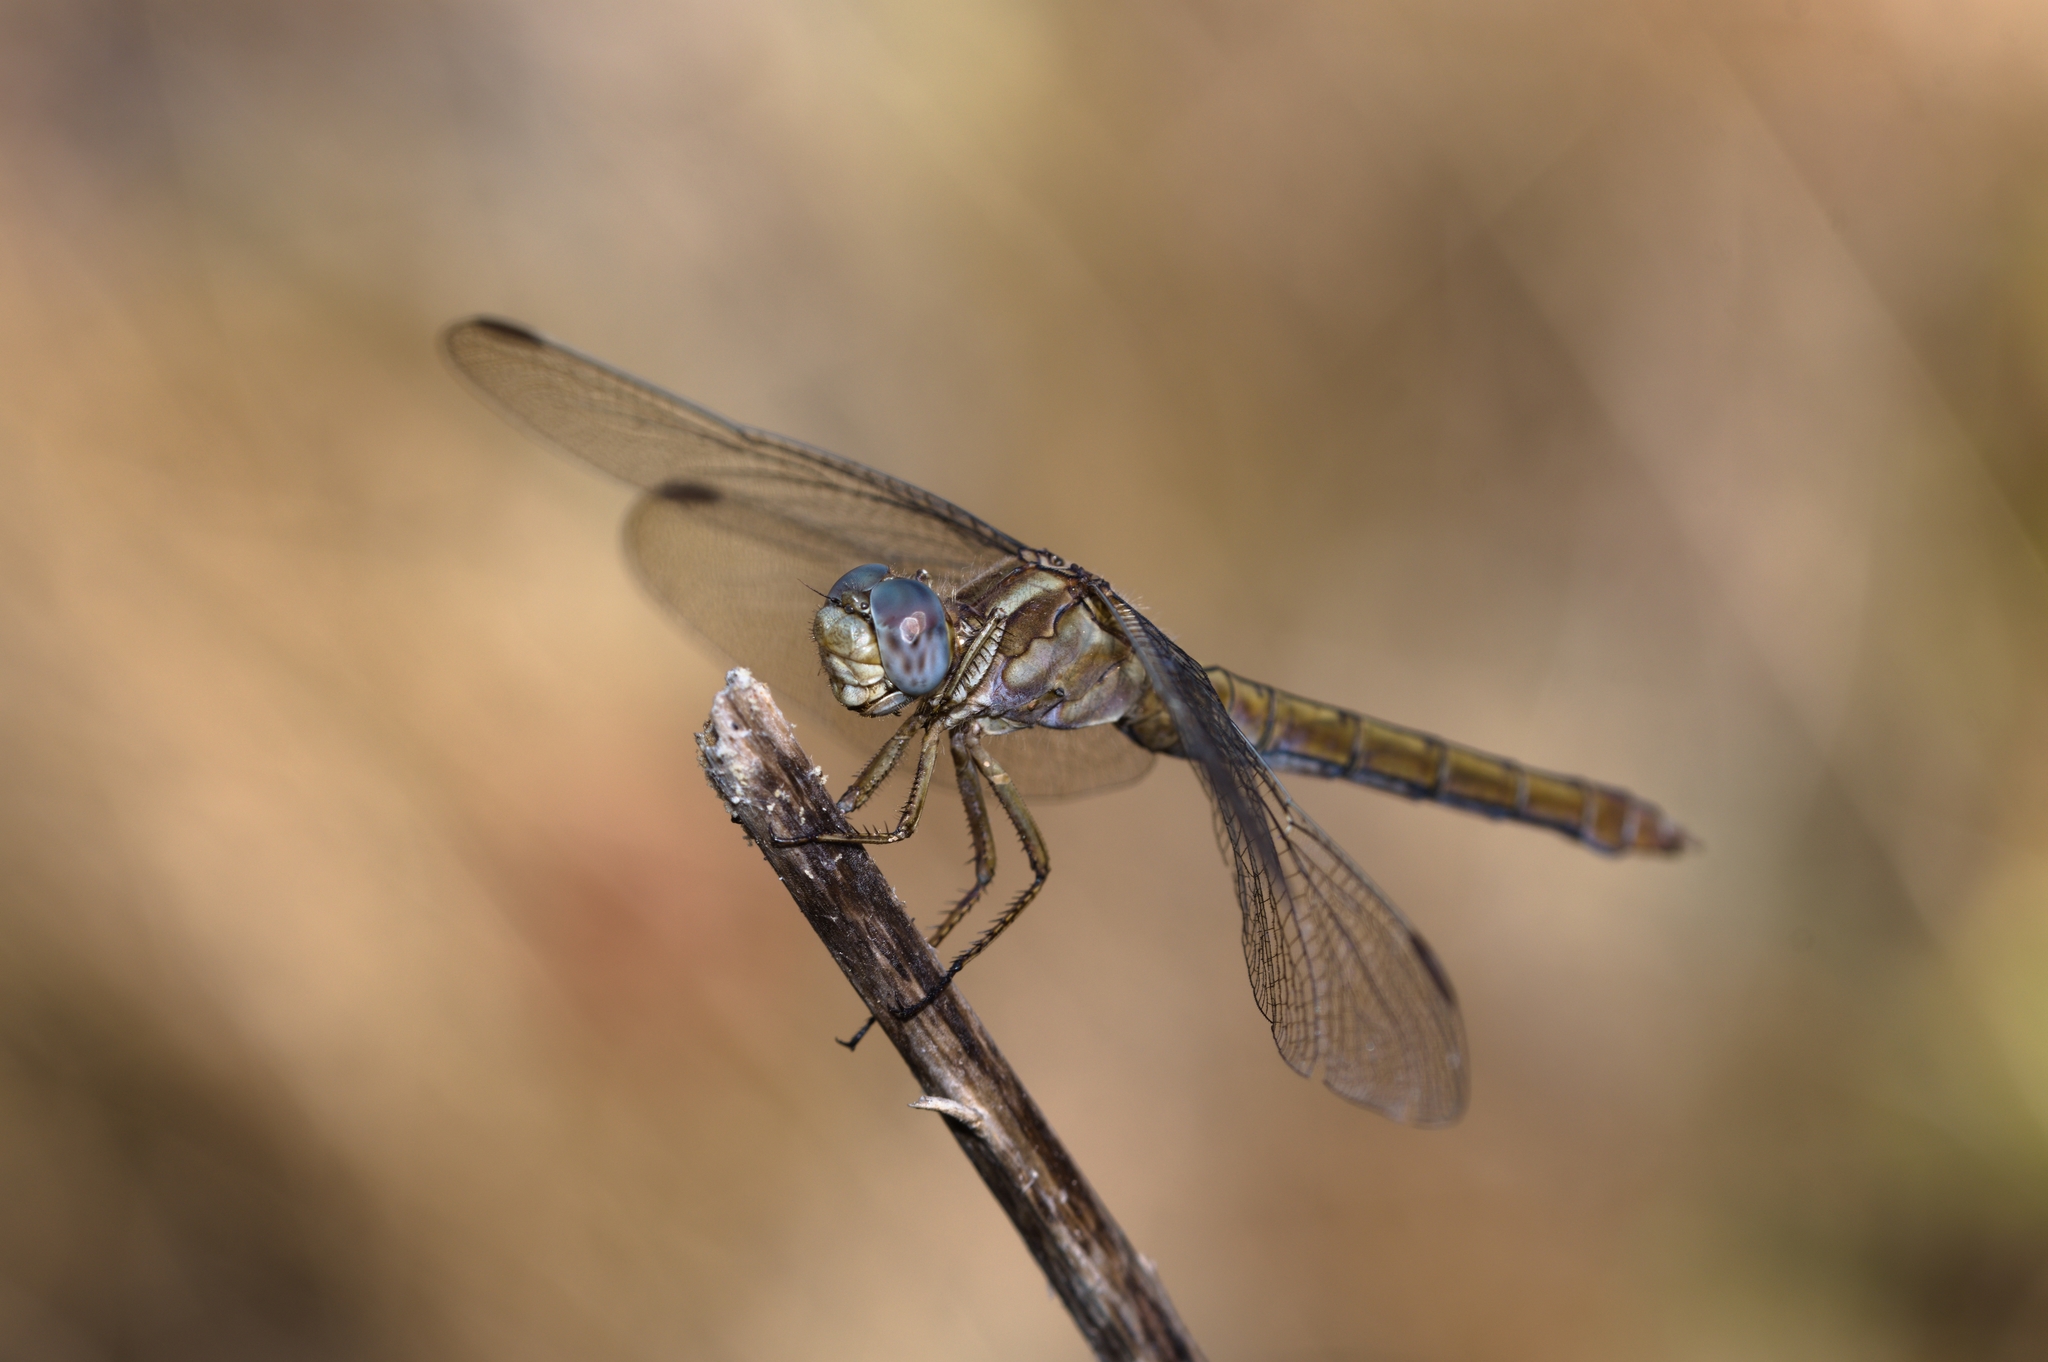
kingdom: Animalia
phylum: Arthropoda
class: Insecta
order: Odonata
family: Libellulidae
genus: Orthetrum
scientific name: Orthetrum coerulescens
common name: Keeled skimmer
